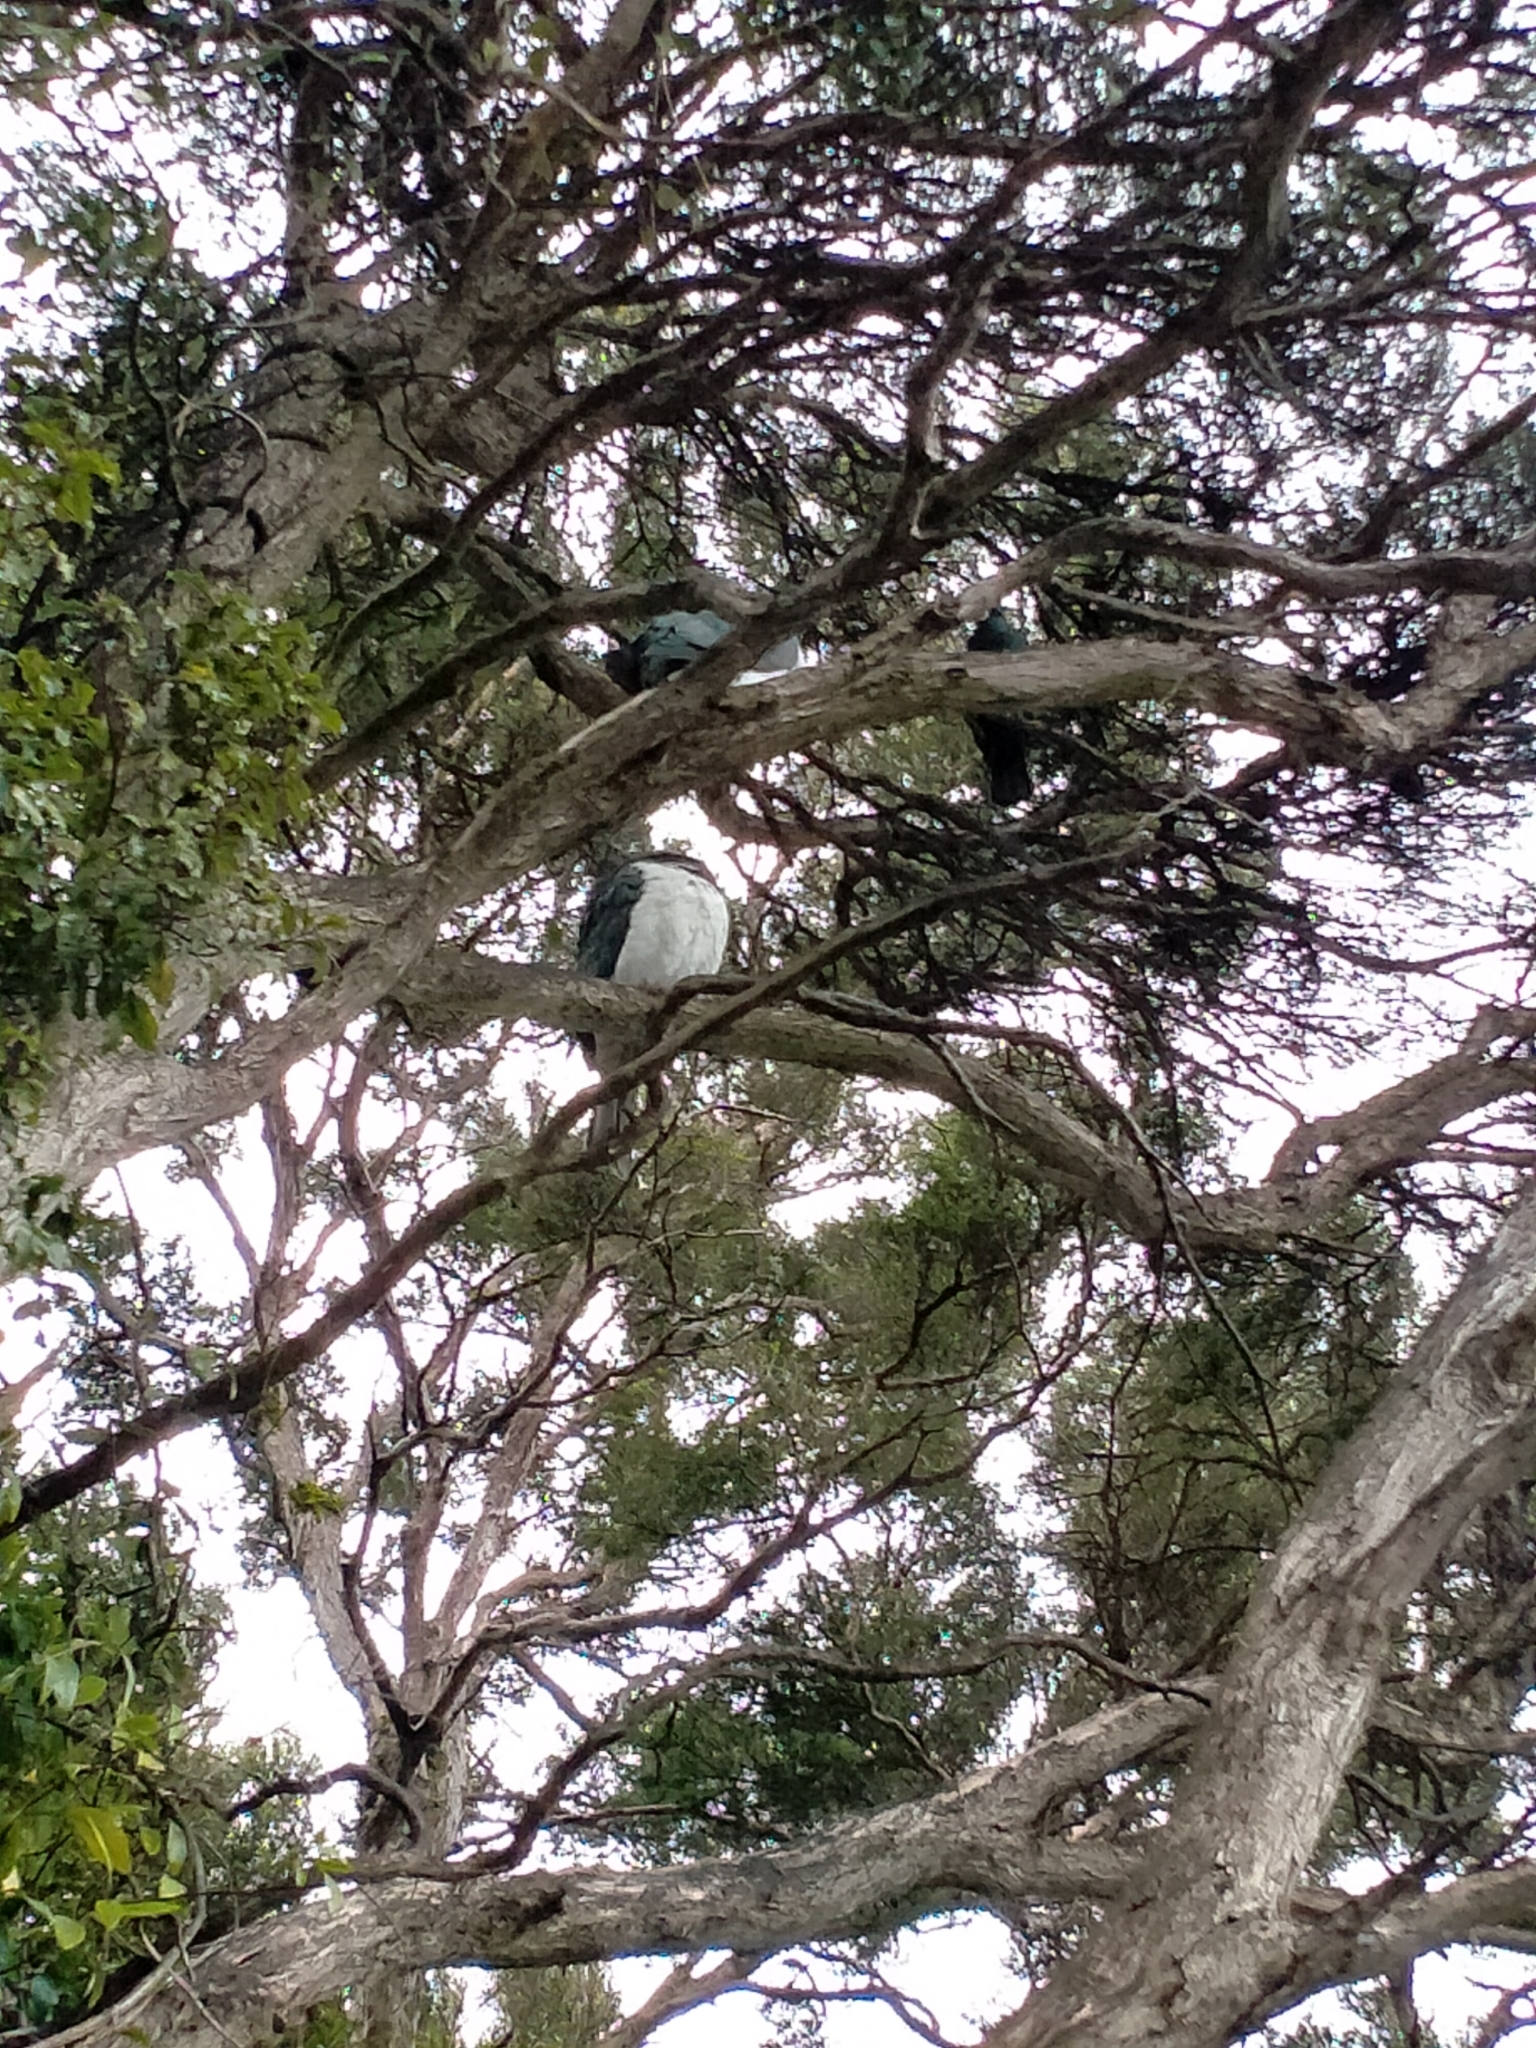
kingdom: Animalia
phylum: Chordata
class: Aves
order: Columbiformes
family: Columbidae
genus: Hemiphaga
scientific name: Hemiphaga novaeseelandiae
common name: New zealand pigeon
